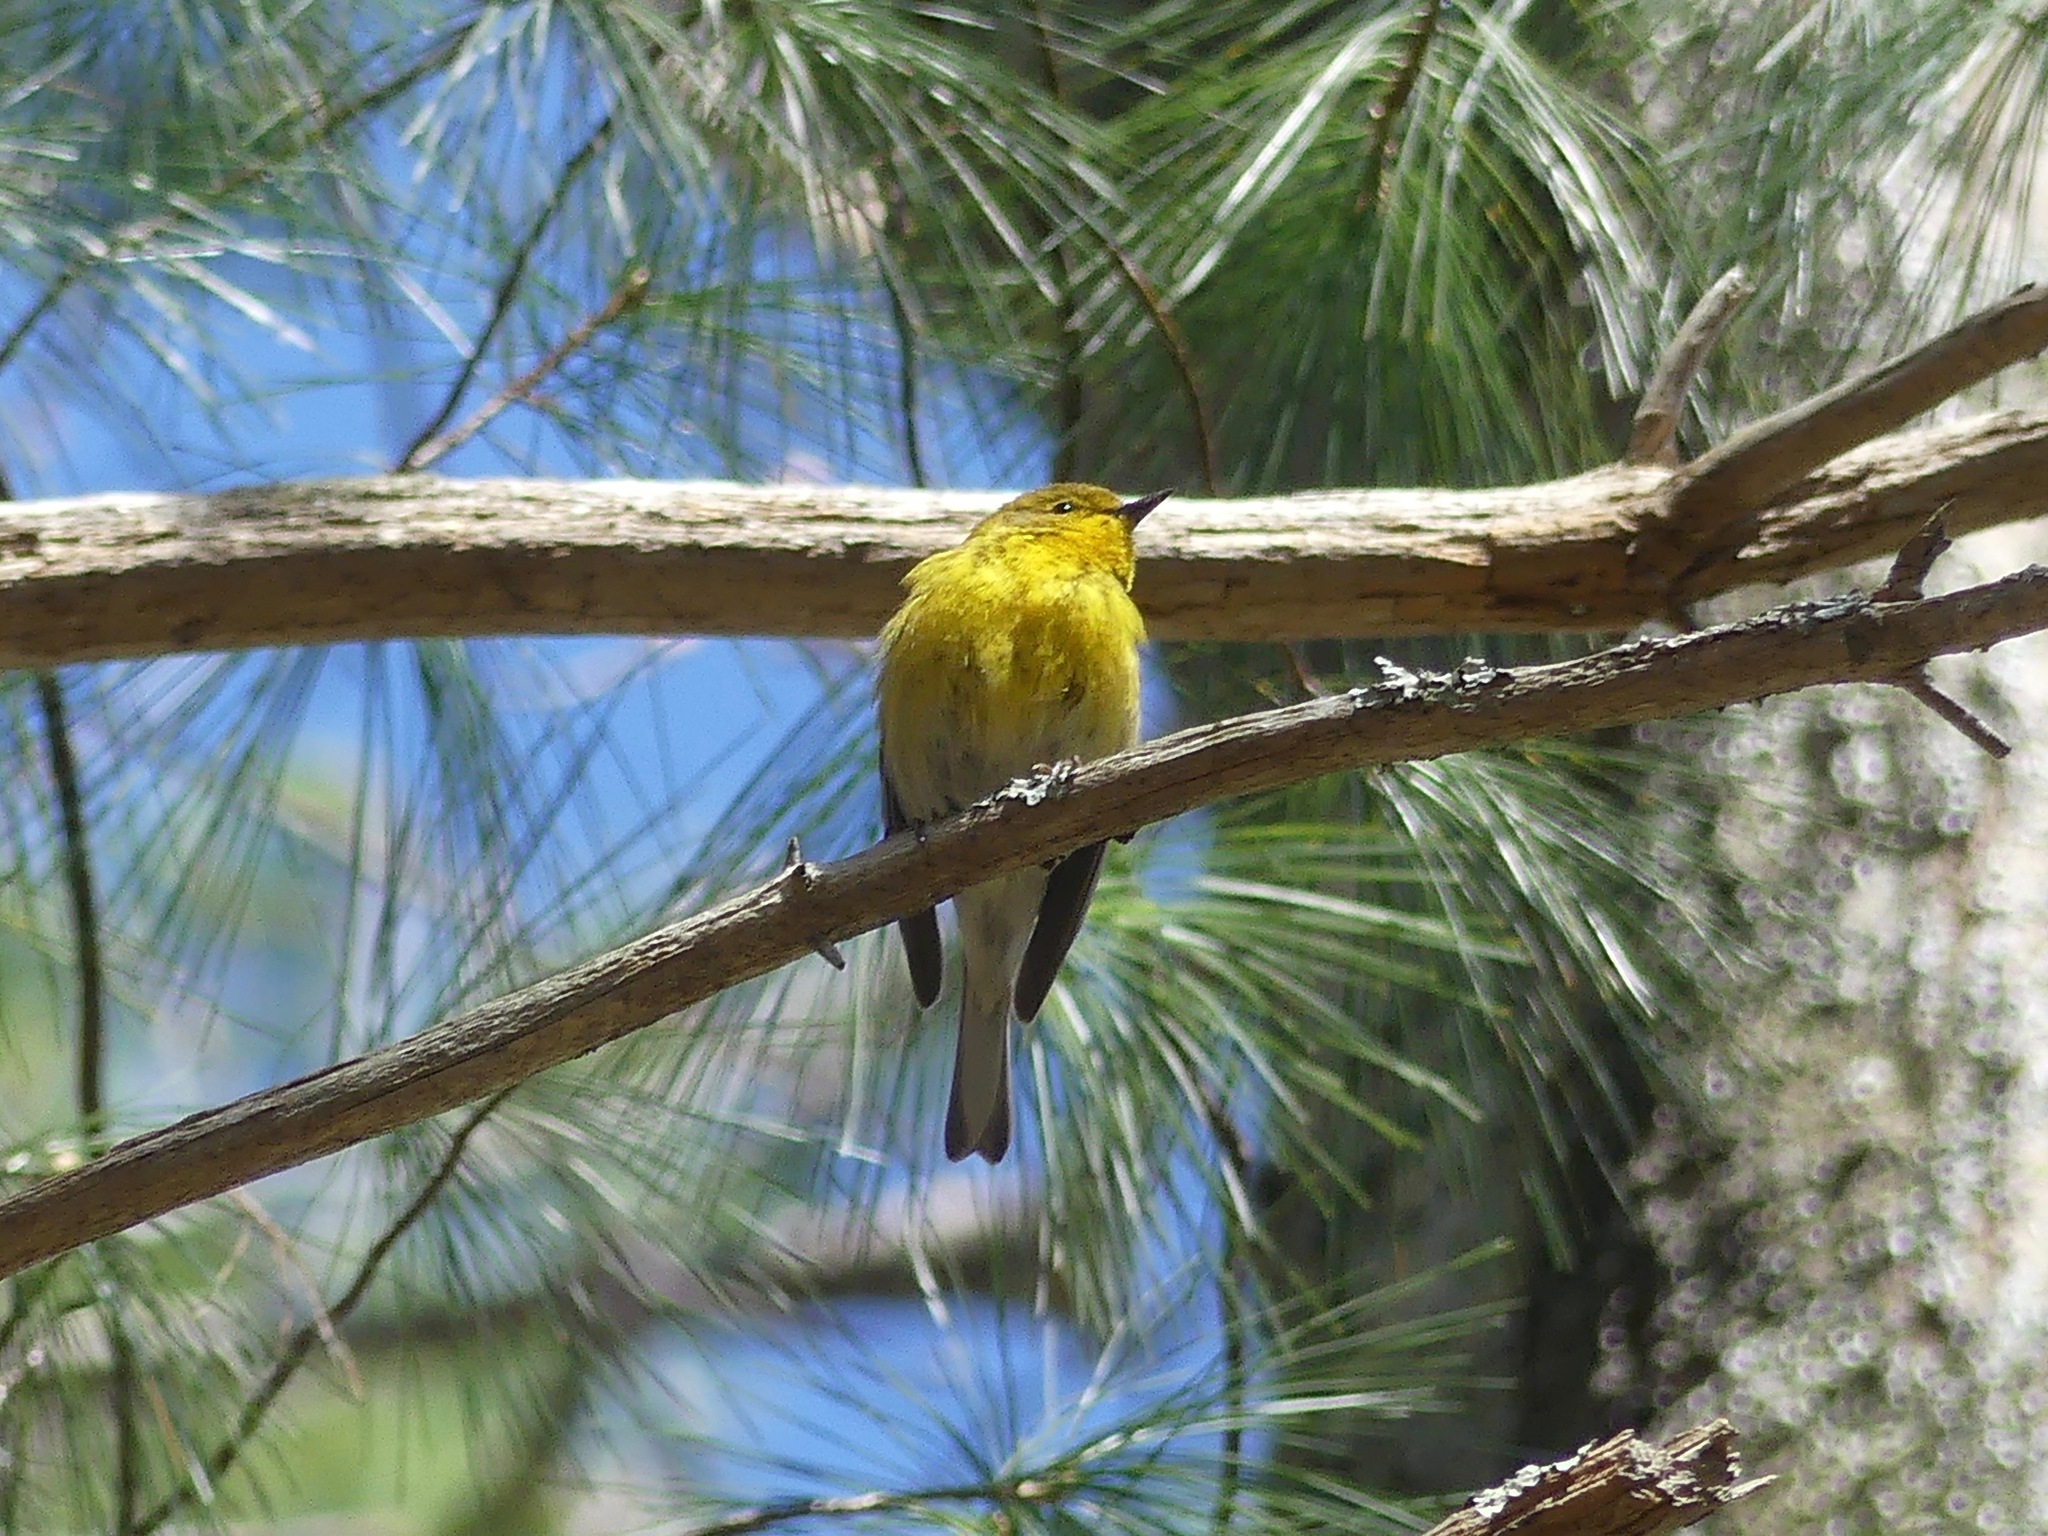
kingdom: Animalia
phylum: Chordata
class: Aves
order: Passeriformes
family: Parulidae
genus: Setophaga
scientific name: Setophaga pinus
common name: Pine warbler
